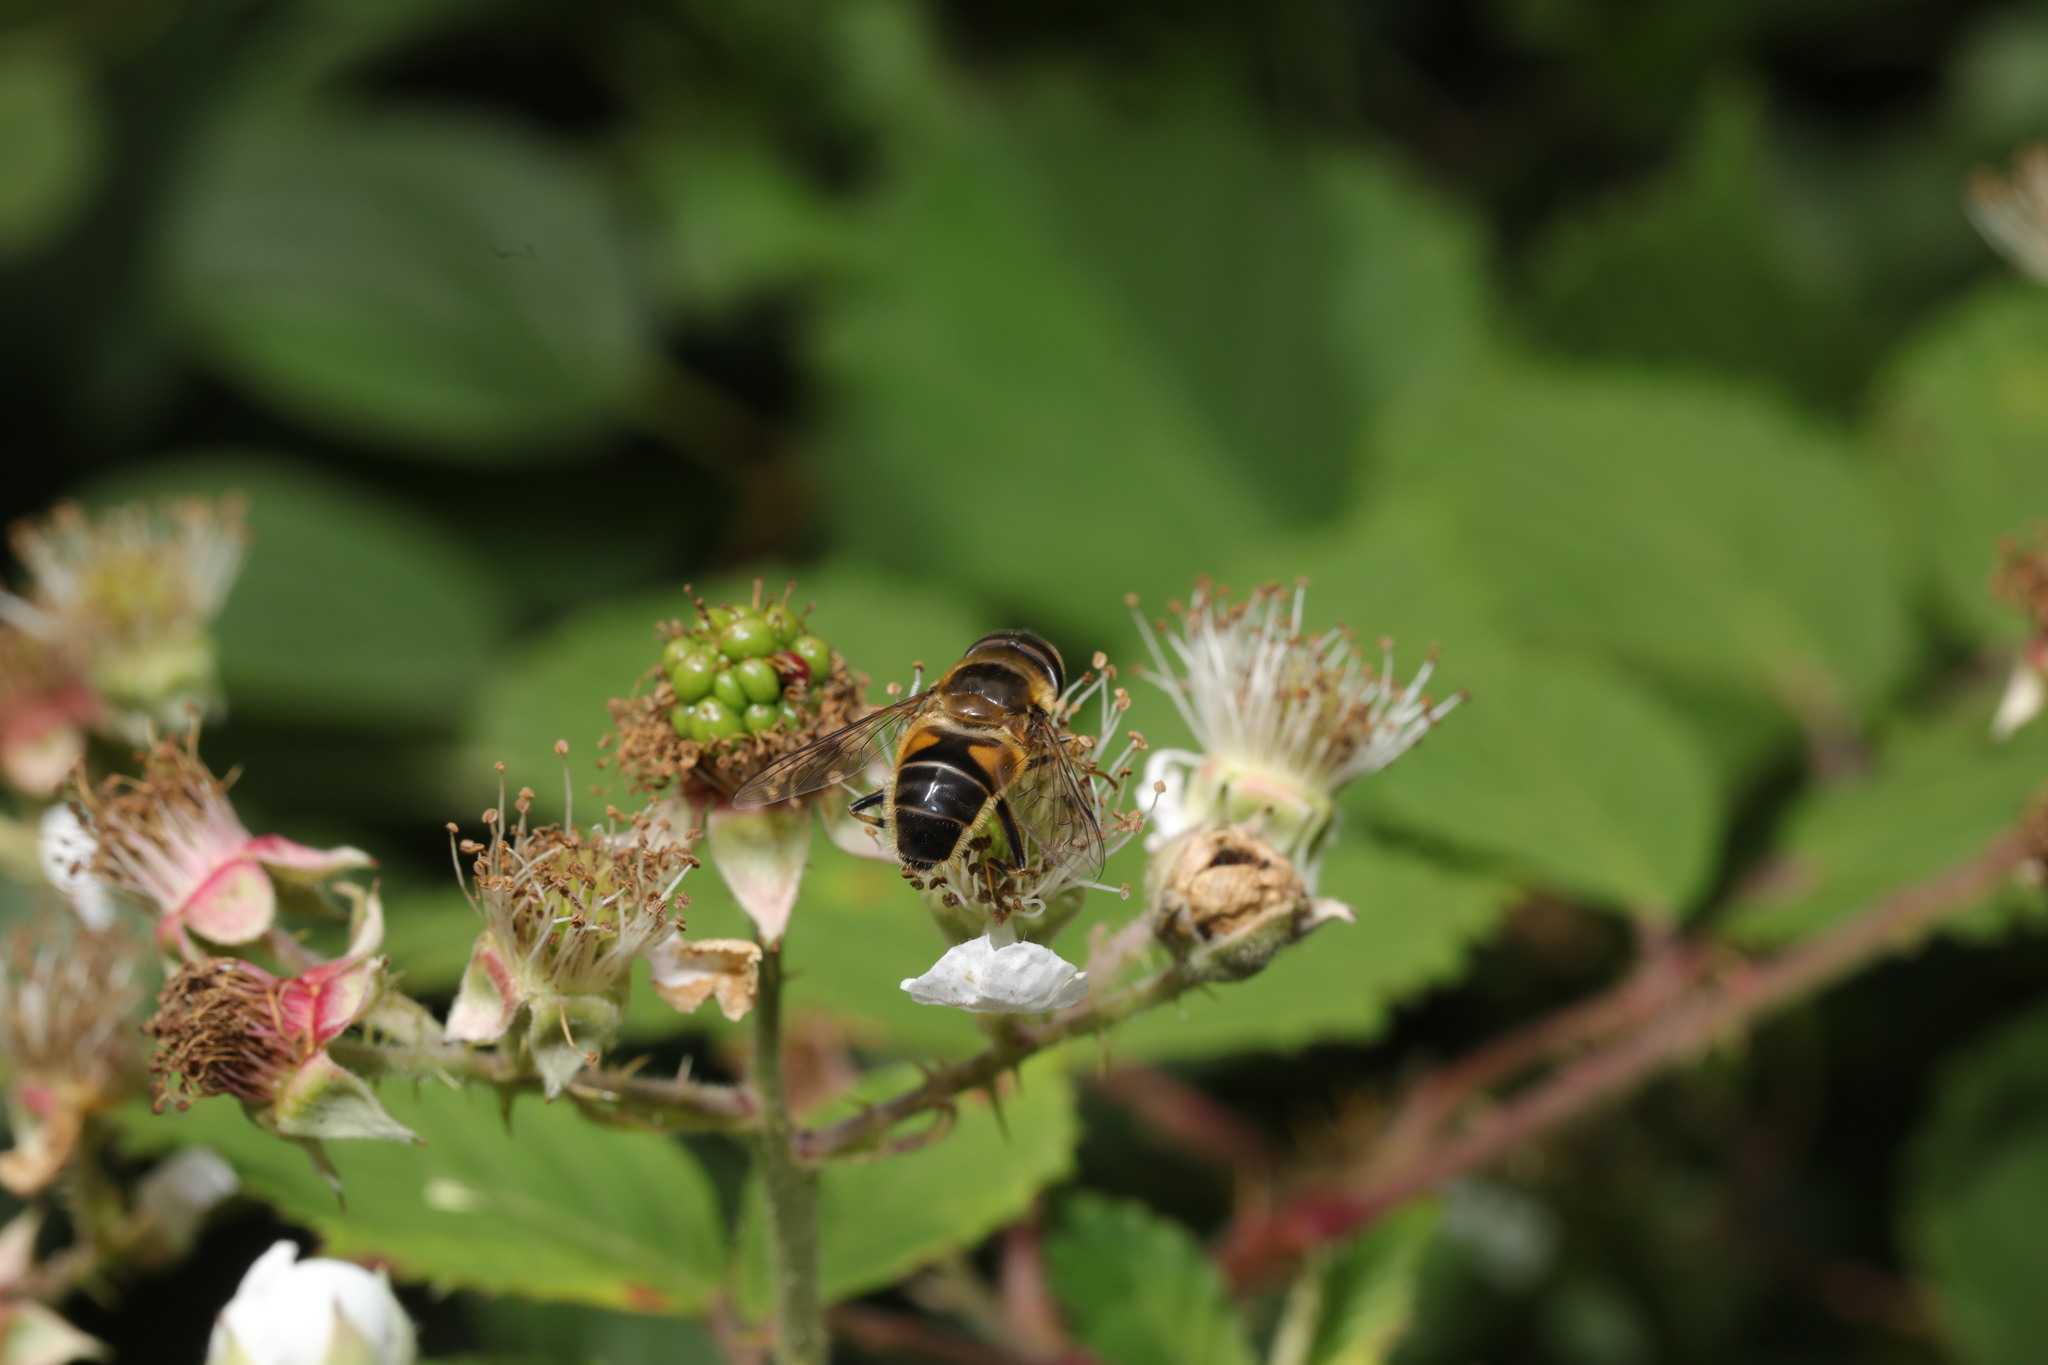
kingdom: Animalia
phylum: Arthropoda
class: Insecta
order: Diptera
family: Syrphidae
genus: Eristalis
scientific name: Eristalis pertinax
